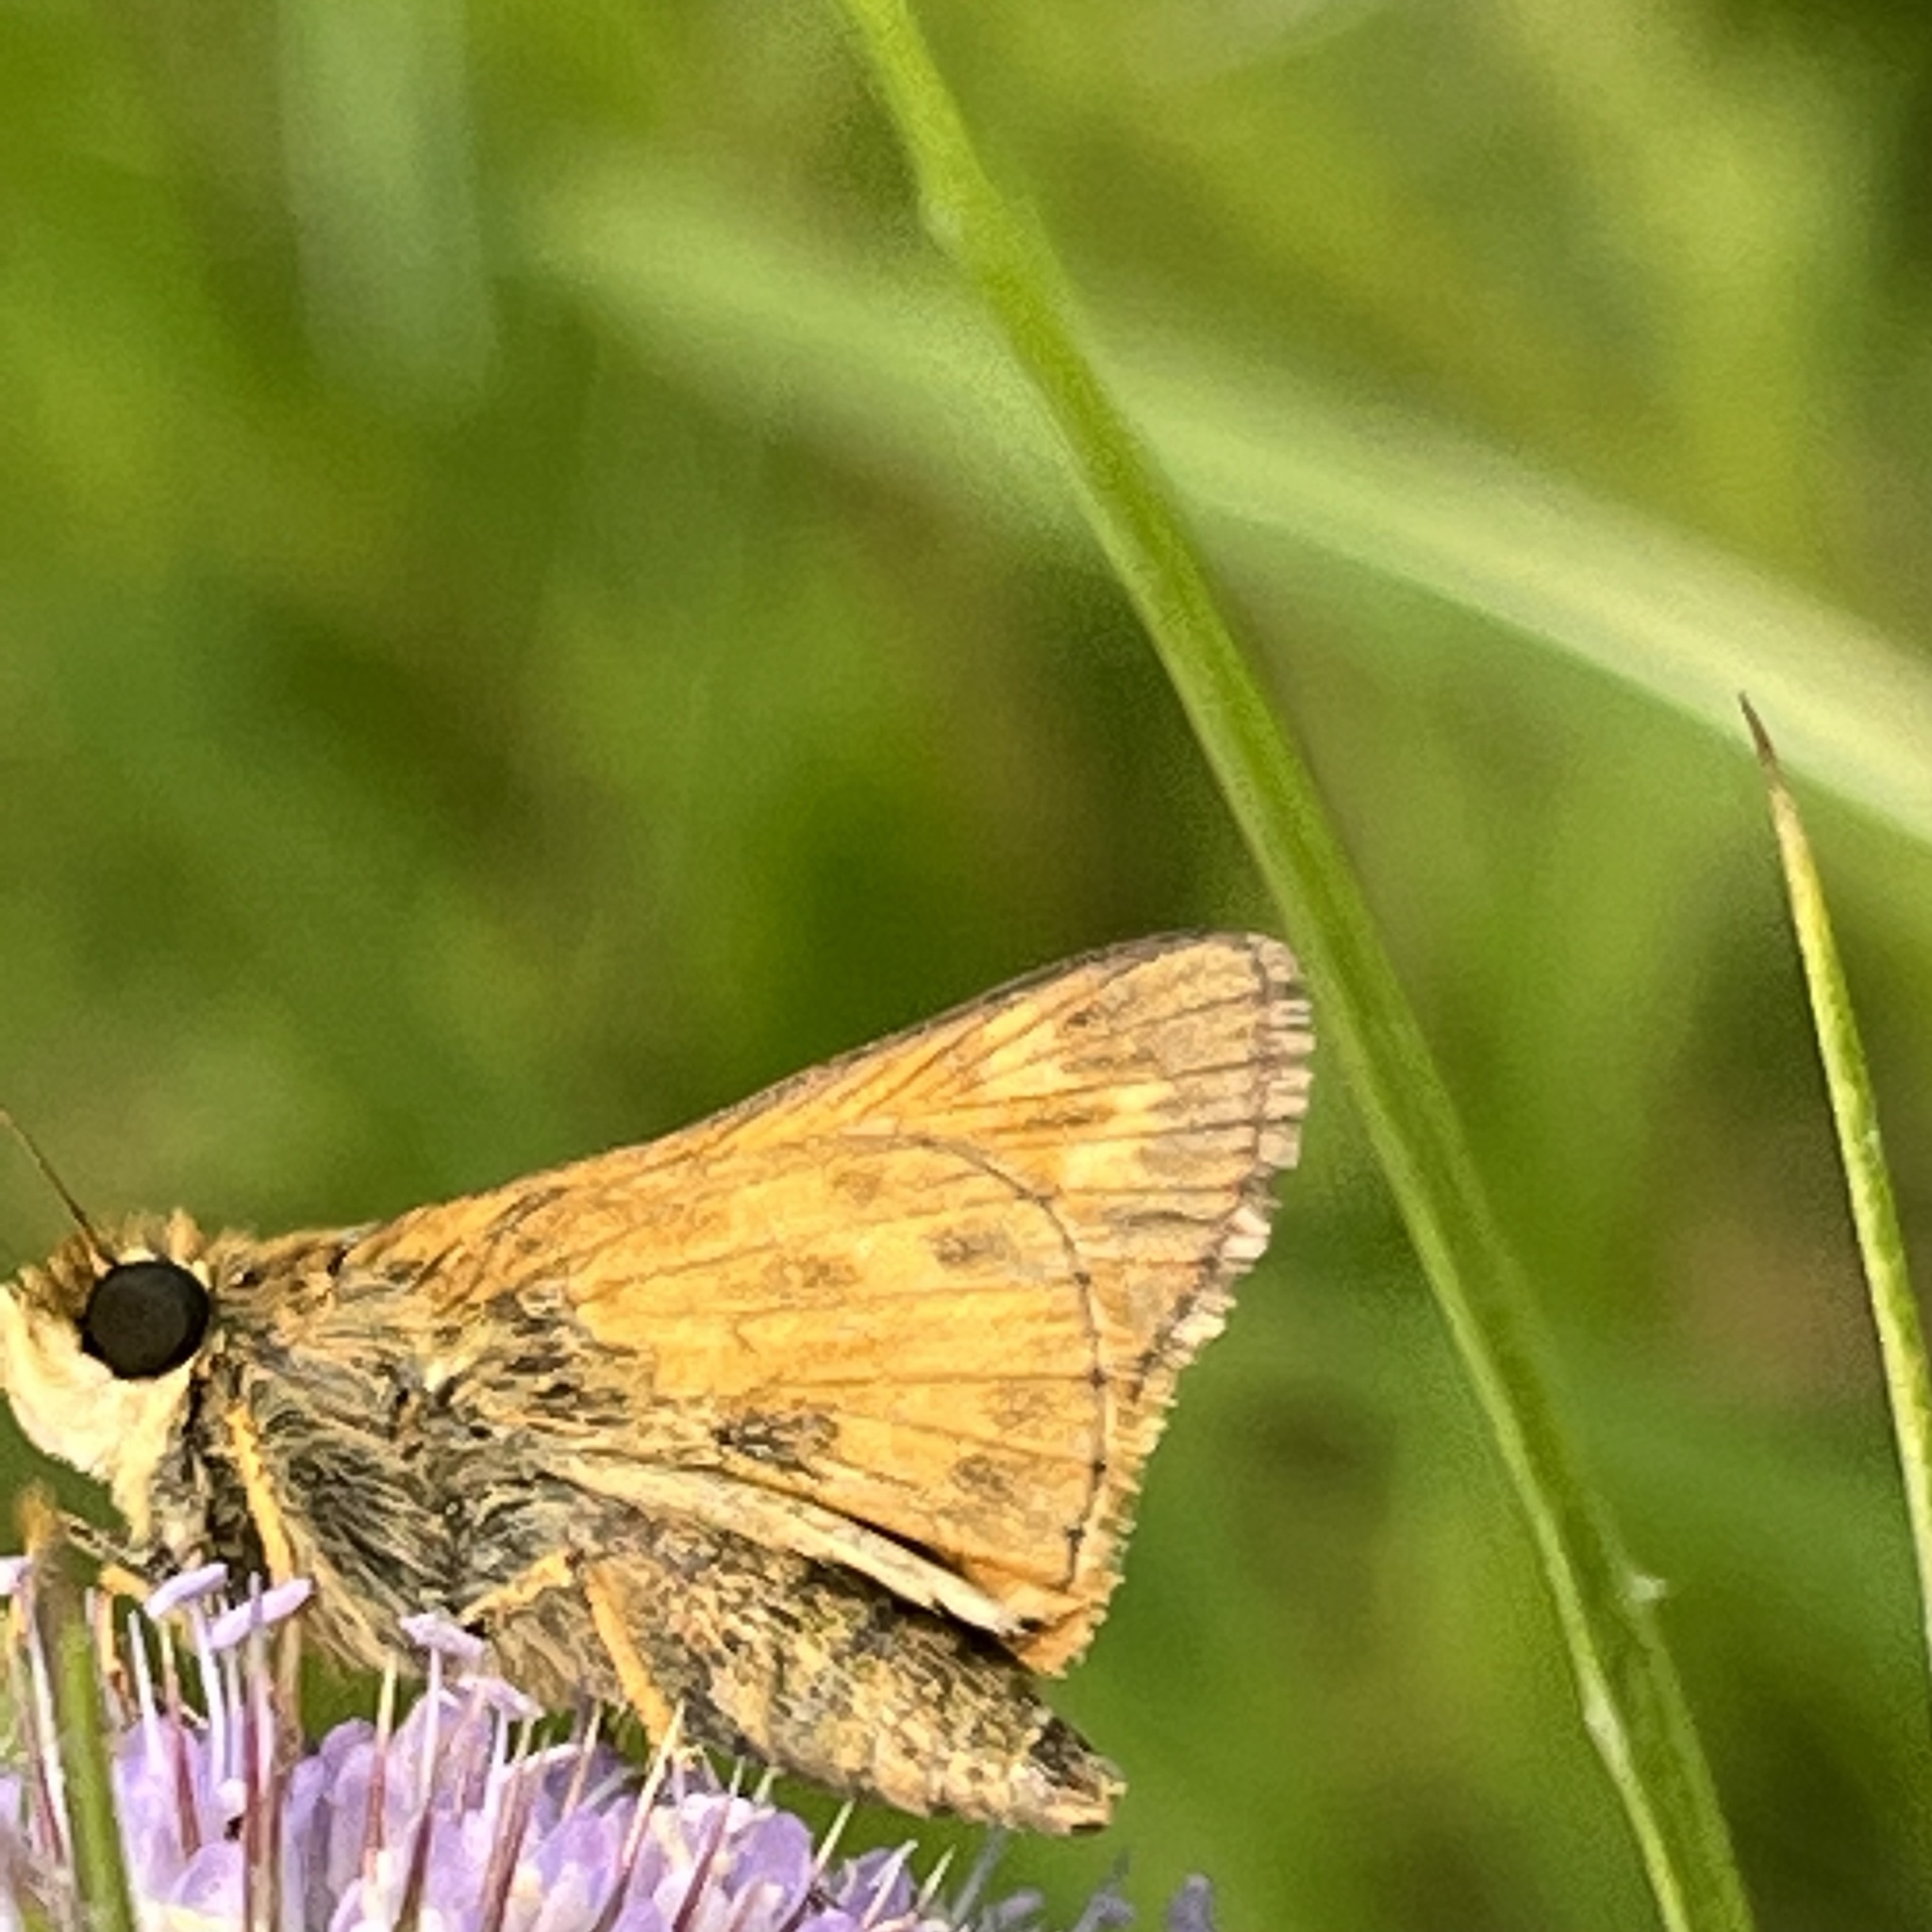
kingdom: Animalia
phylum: Arthropoda
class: Insecta
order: Lepidoptera
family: Hesperiidae
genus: Atalopedes
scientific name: Atalopedes
